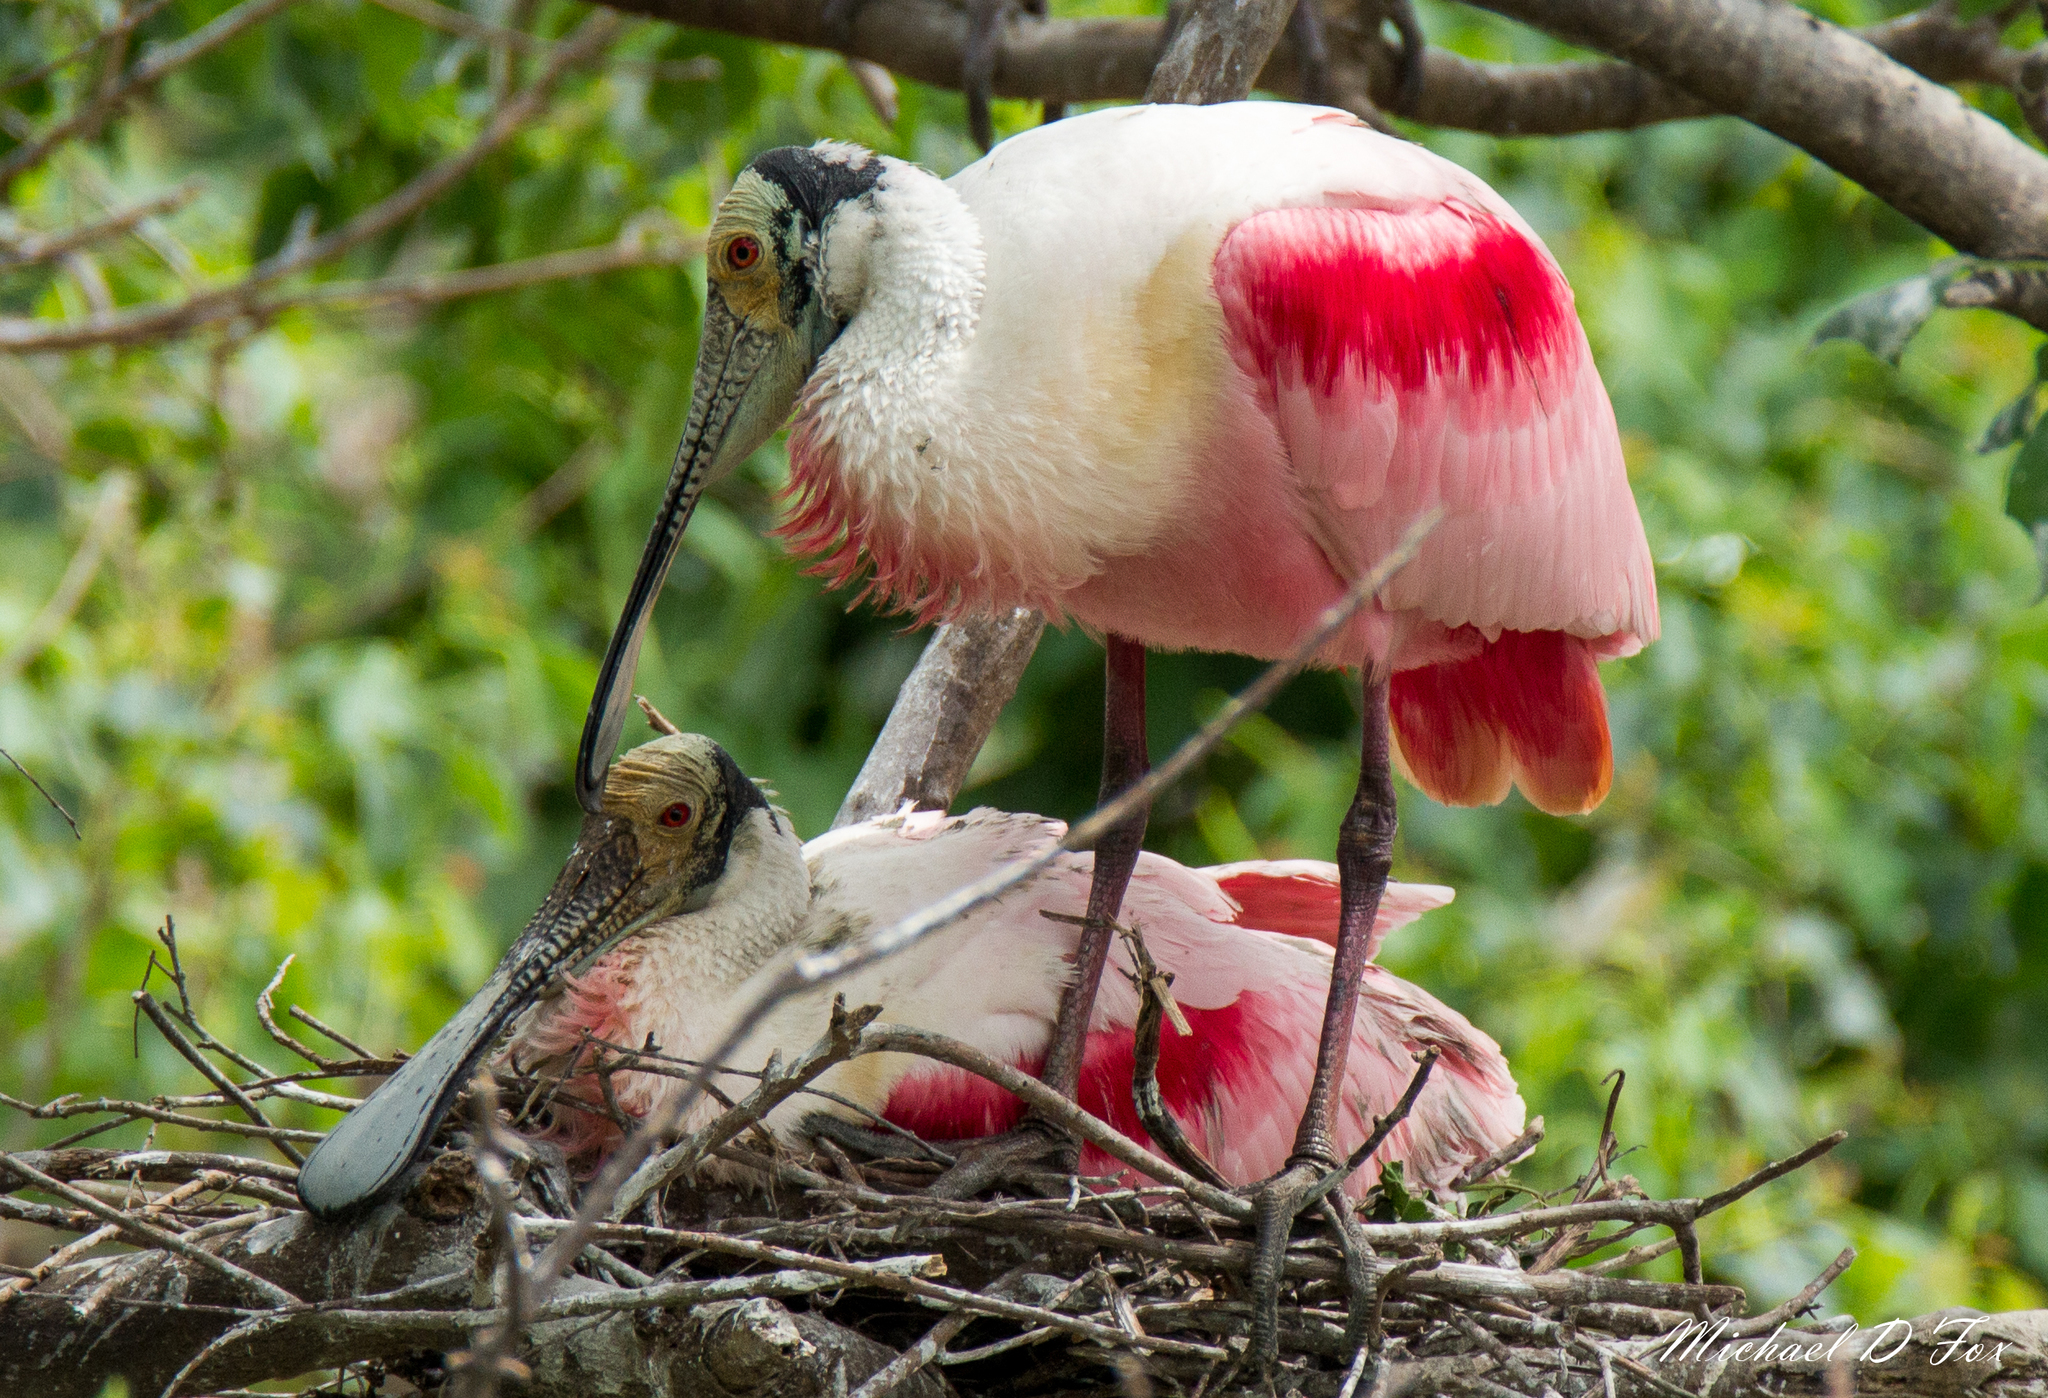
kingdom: Animalia
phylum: Chordata
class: Aves
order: Pelecaniformes
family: Threskiornithidae
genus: Platalea
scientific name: Platalea ajaja
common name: Roseate spoonbill
